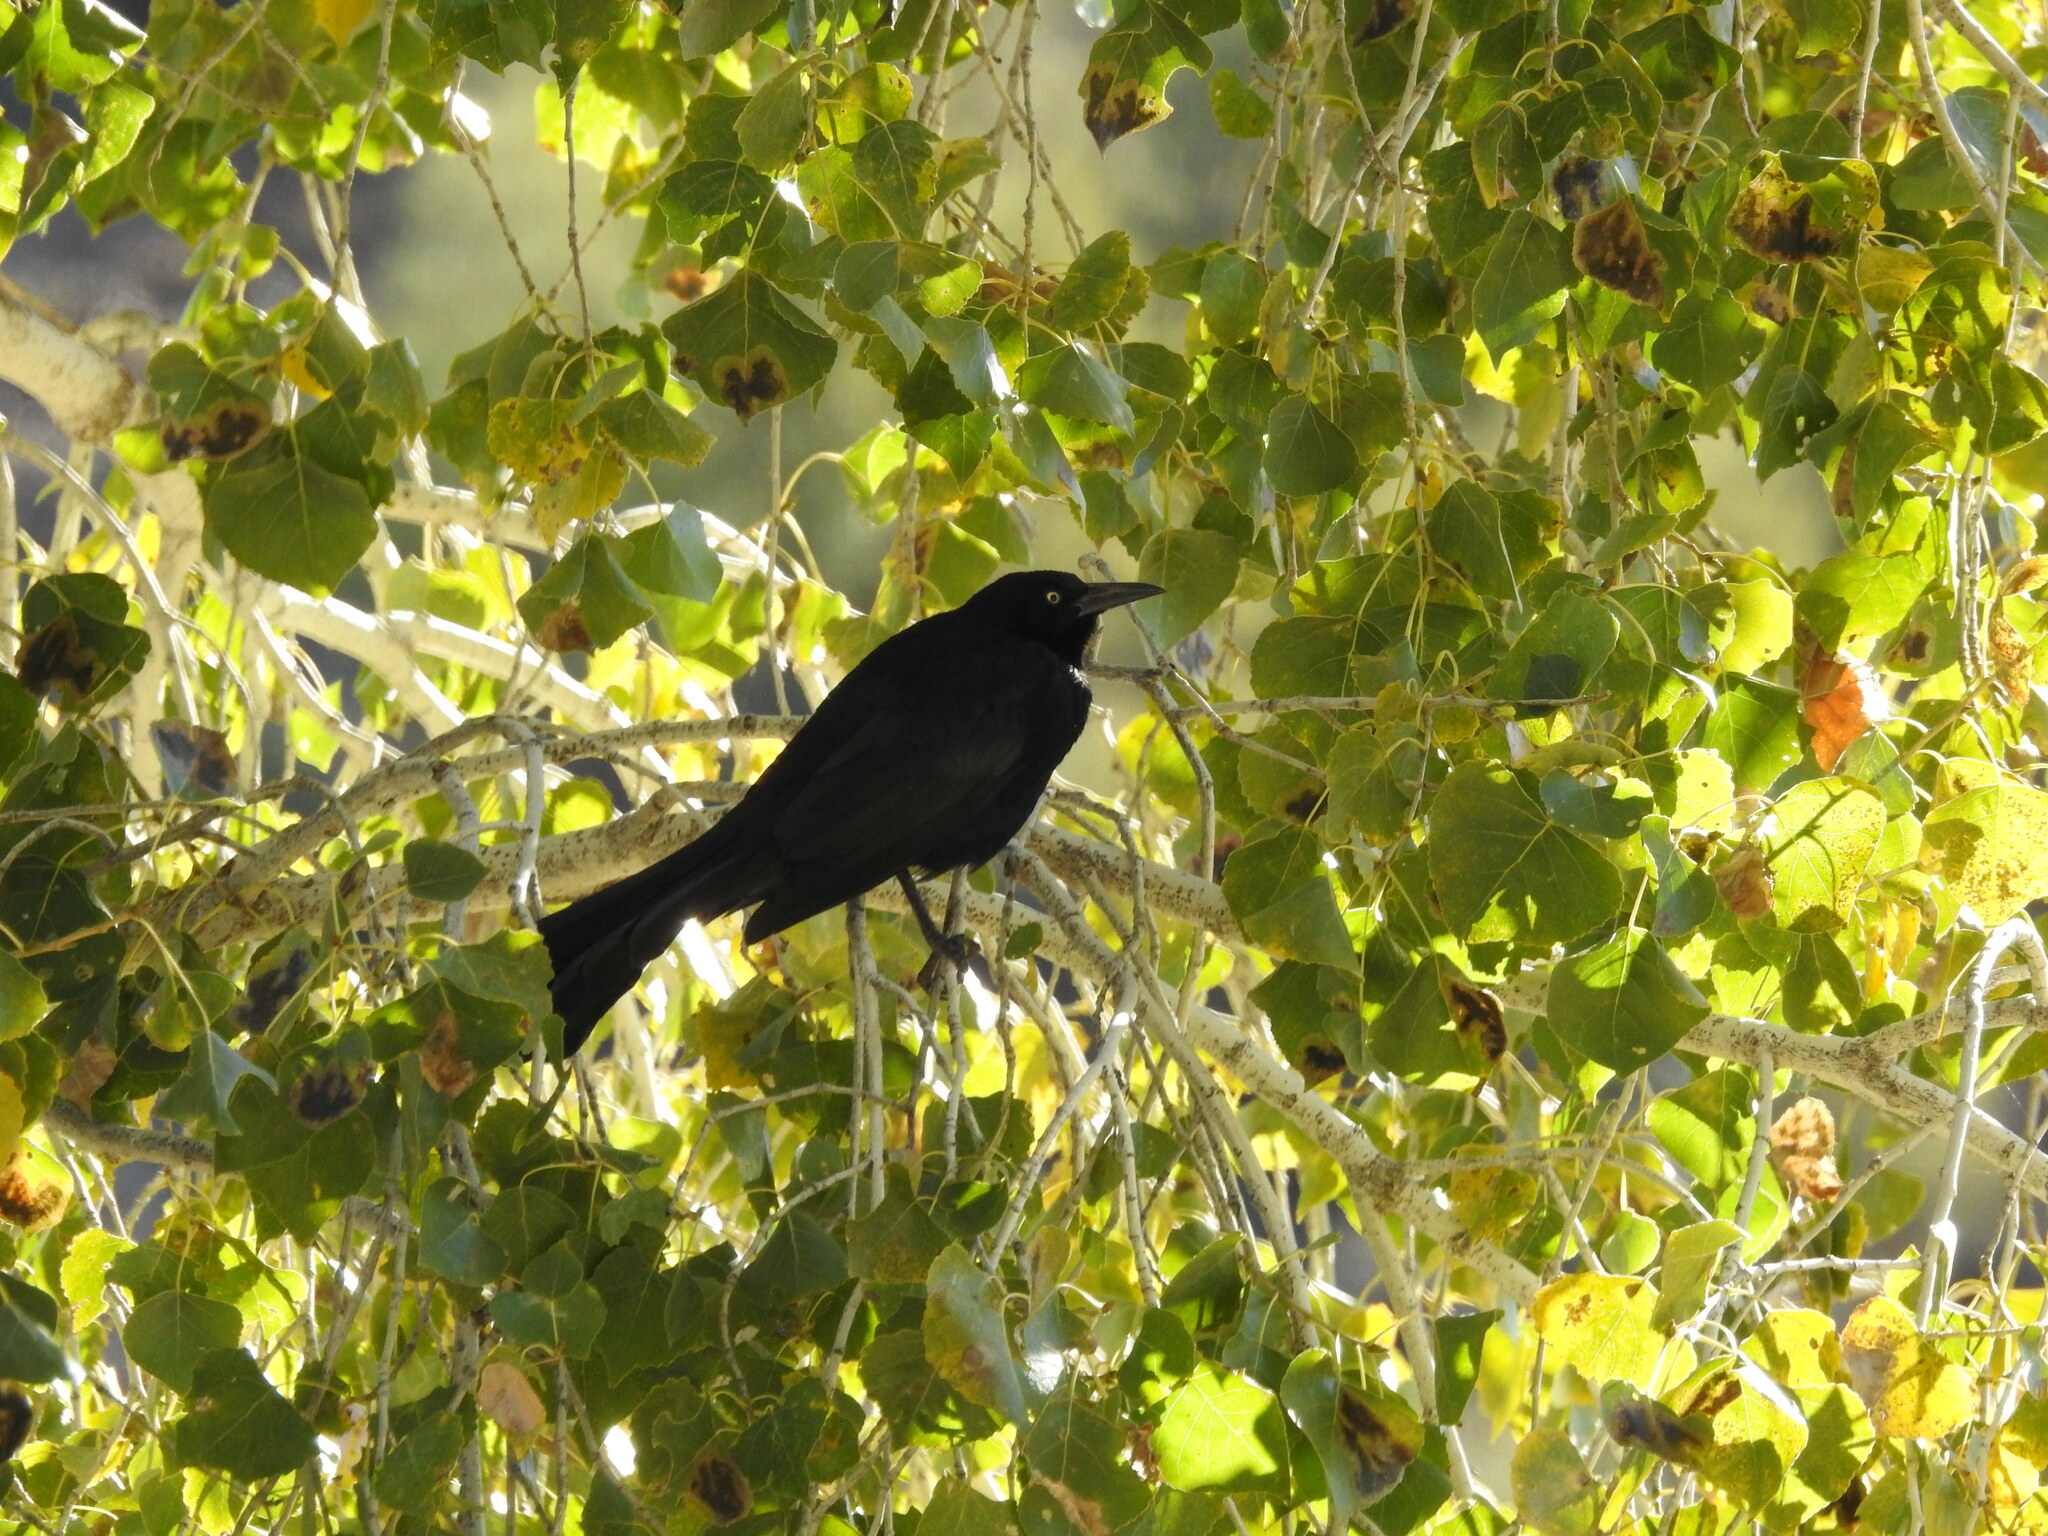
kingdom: Animalia
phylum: Chordata
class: Aves
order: Passeriformes
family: Icteridae
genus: Quiscalus
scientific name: Quiscalus mexicanus
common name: Great-tailed grackle
